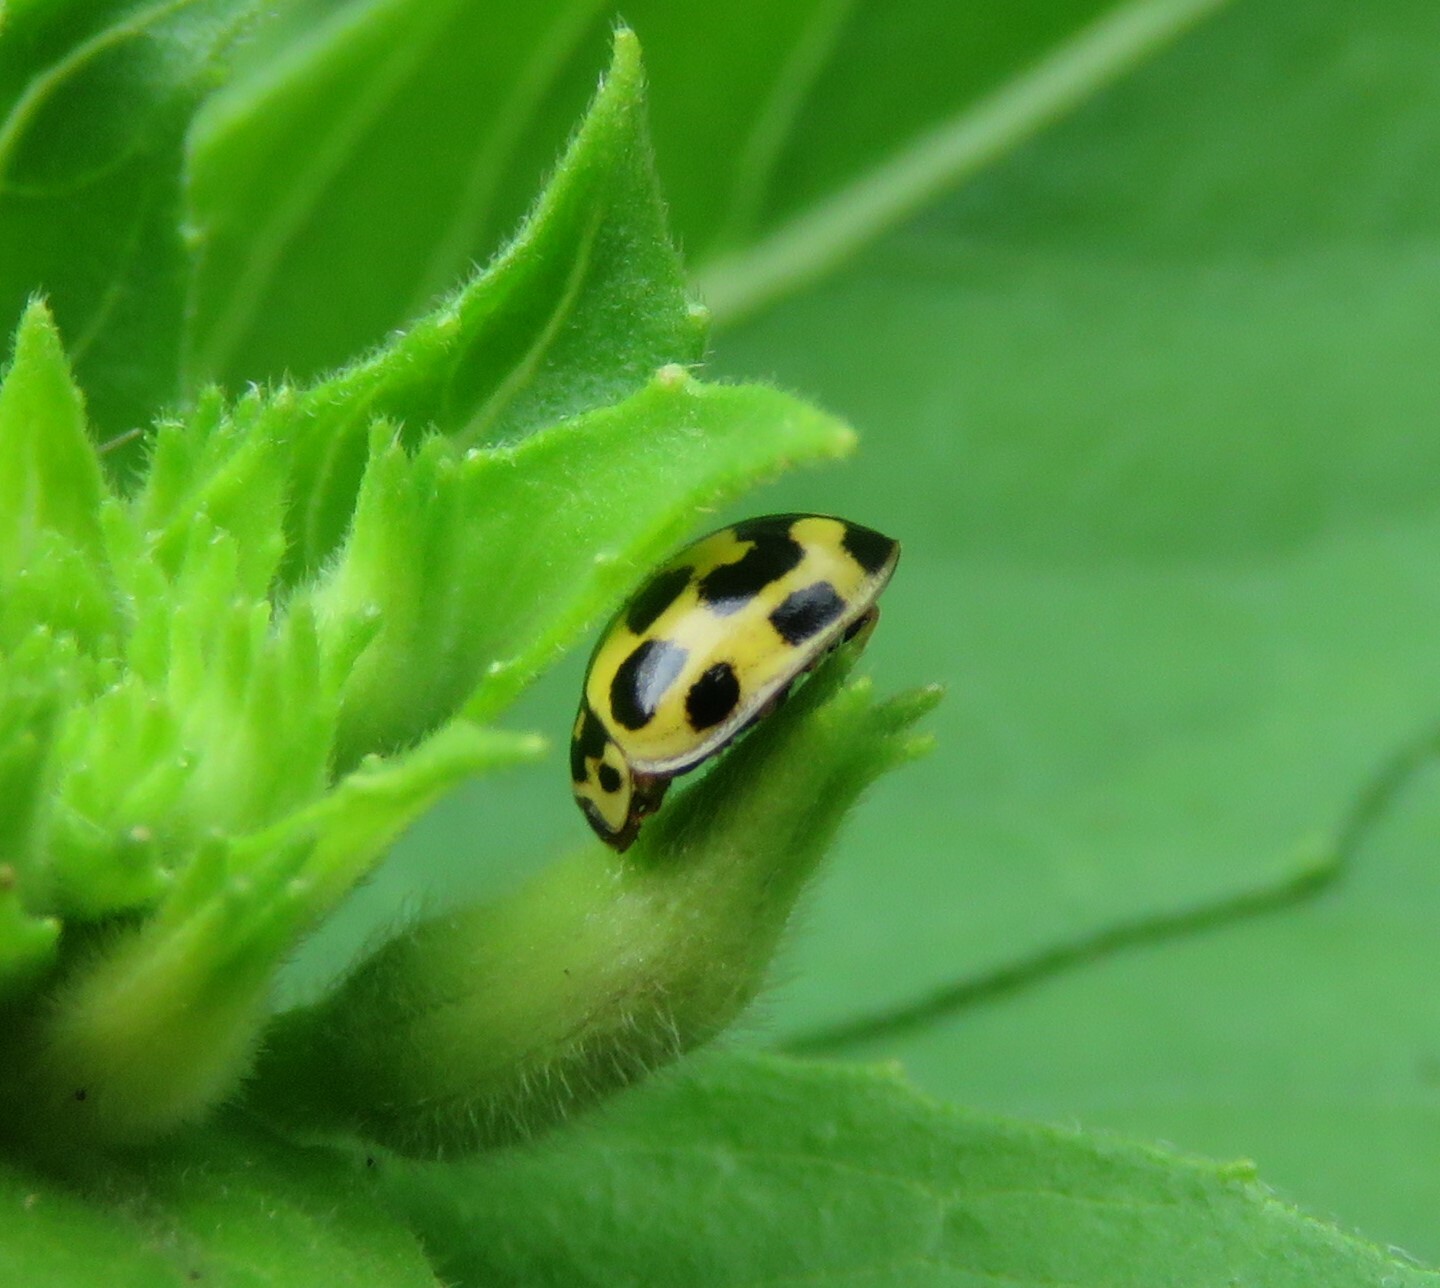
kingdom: Animalia
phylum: Arthropoda
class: Insecta
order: Coleoptera
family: Coccinellidae
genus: Propylaea
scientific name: Propylaea quatuordecimpunctata
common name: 14-spotted ladybird beetle
